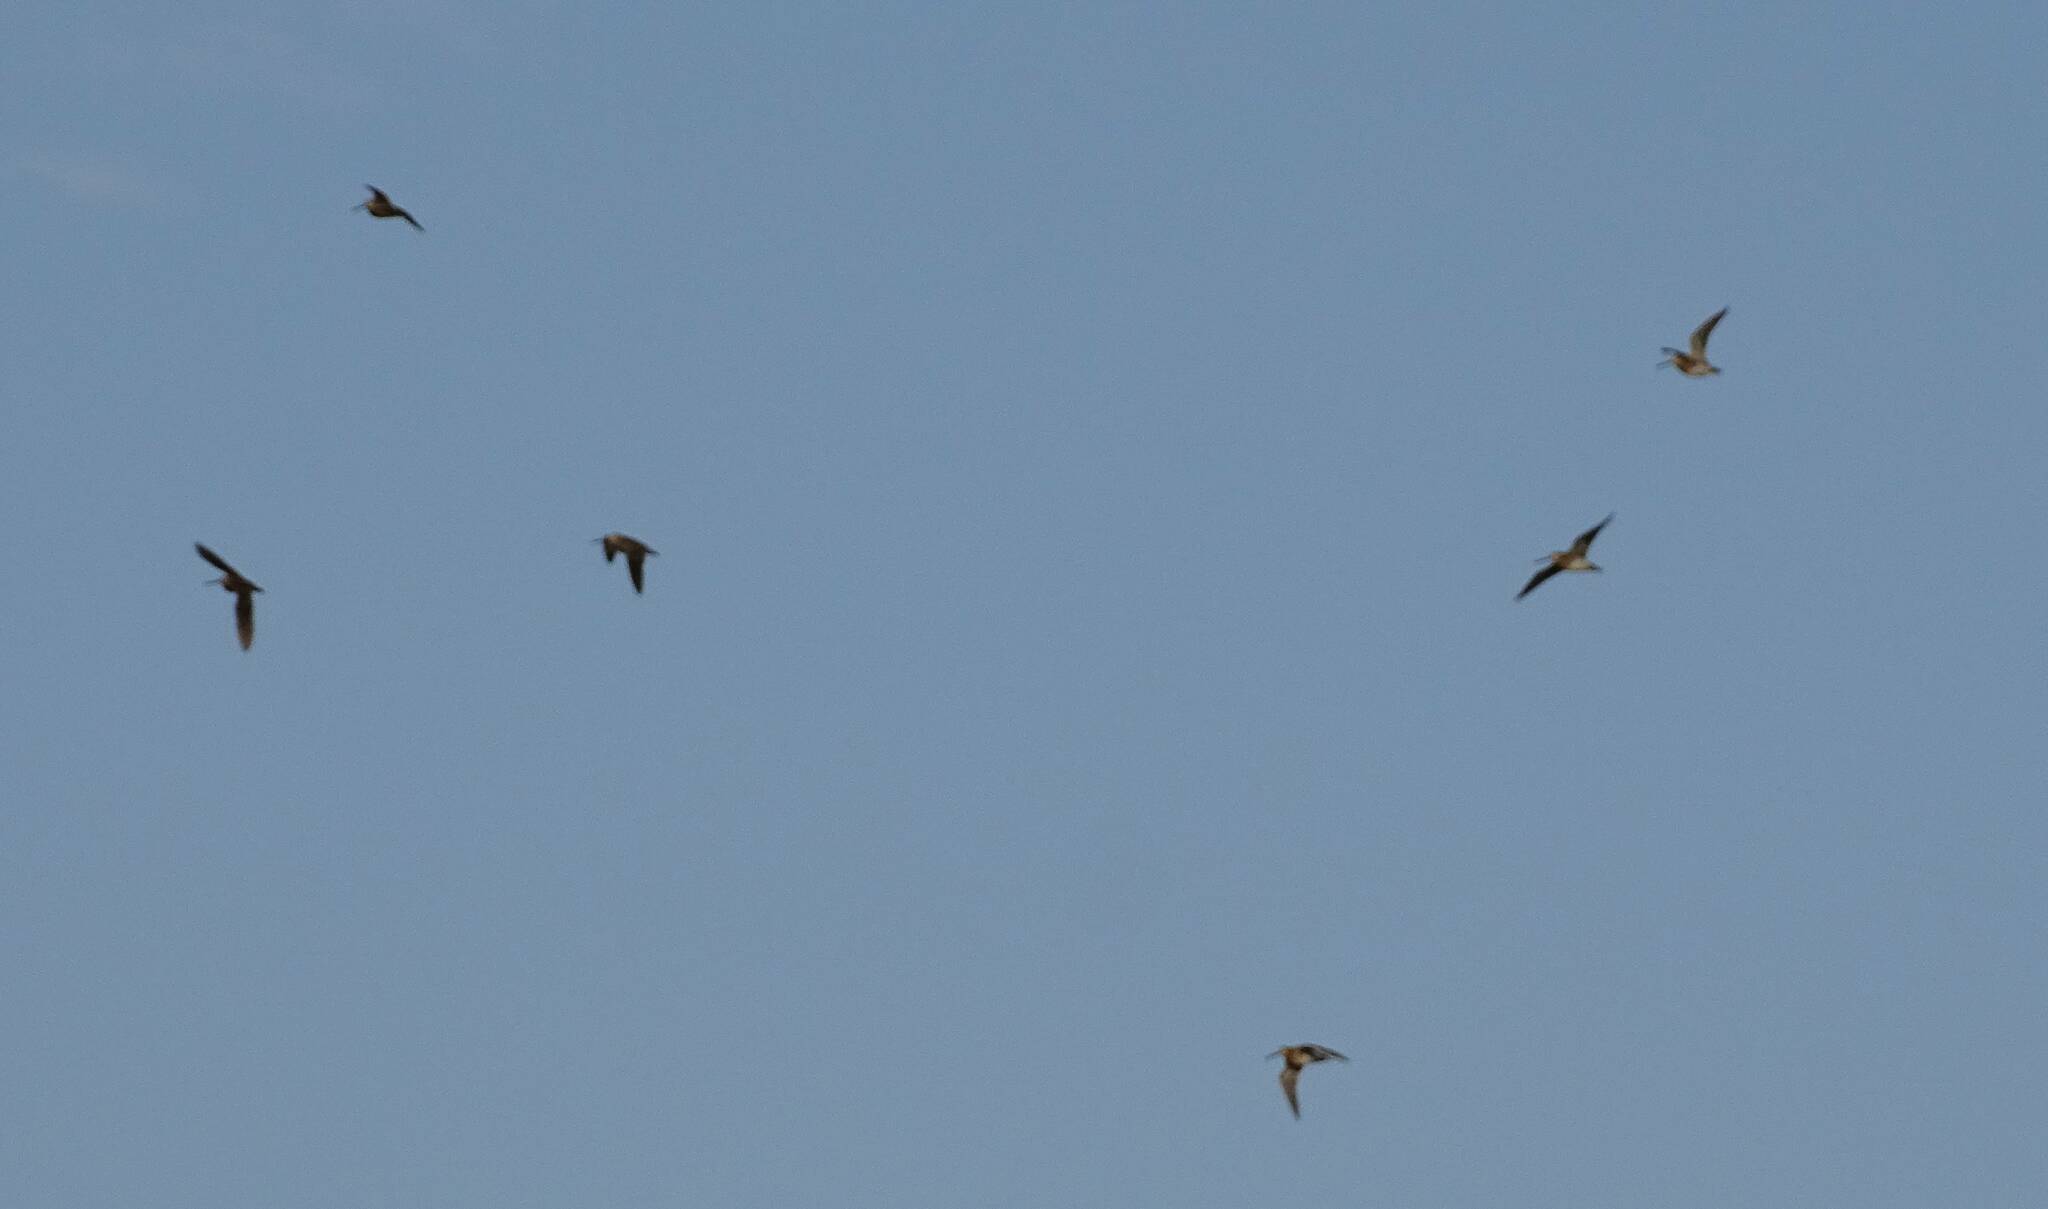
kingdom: Animalia
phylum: Chordata
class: Aves
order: Charadriiformes
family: Scolopacidae
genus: Gallinago
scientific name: Gallinago gallinago
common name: Common snipe
